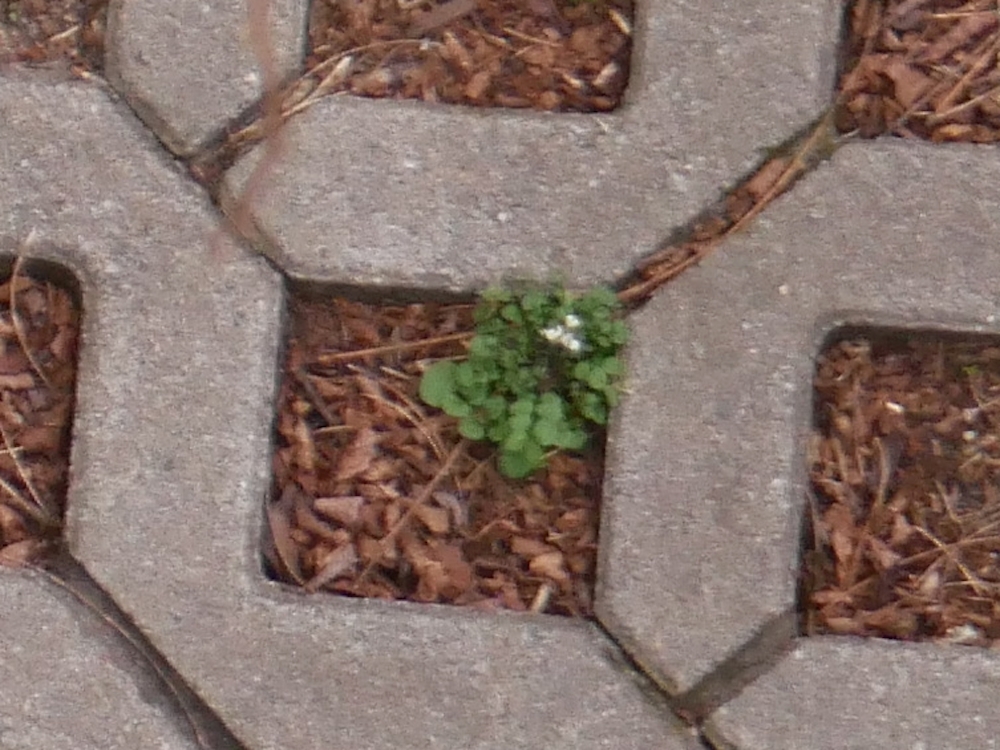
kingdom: Plantae
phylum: Tracheophyta
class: Magnoliopsida
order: Brassicales
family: Brassicaceae
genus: Cardamine
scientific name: Cardamine hirsuta
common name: Hairy bittercress
